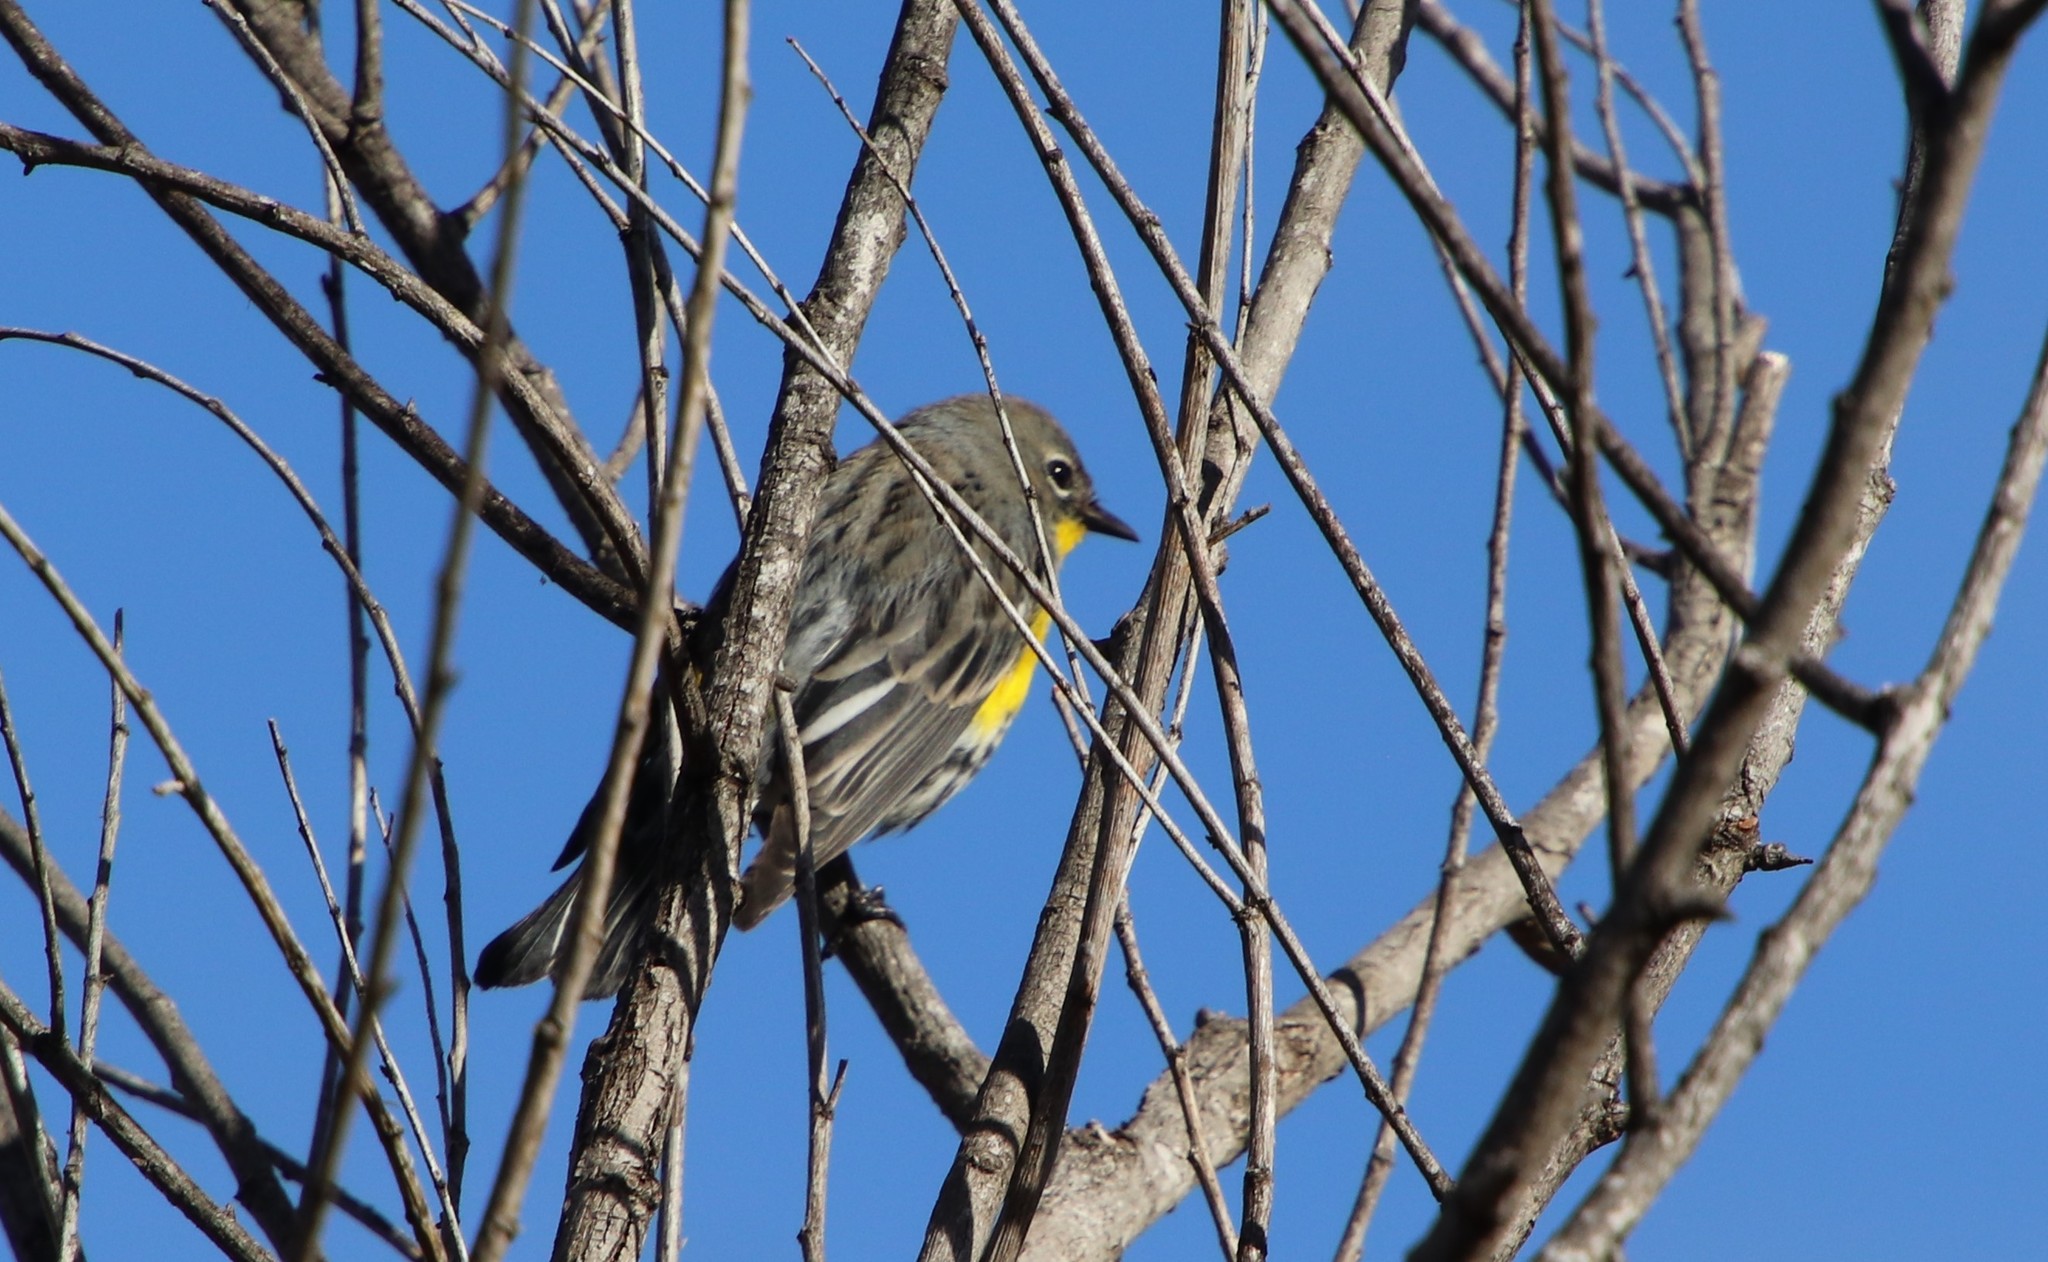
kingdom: Animalia
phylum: Chordata
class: Aves
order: Passeriformes
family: Parulidae
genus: Setophaga
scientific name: Setophaga auduboni
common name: Audubon's warbler
